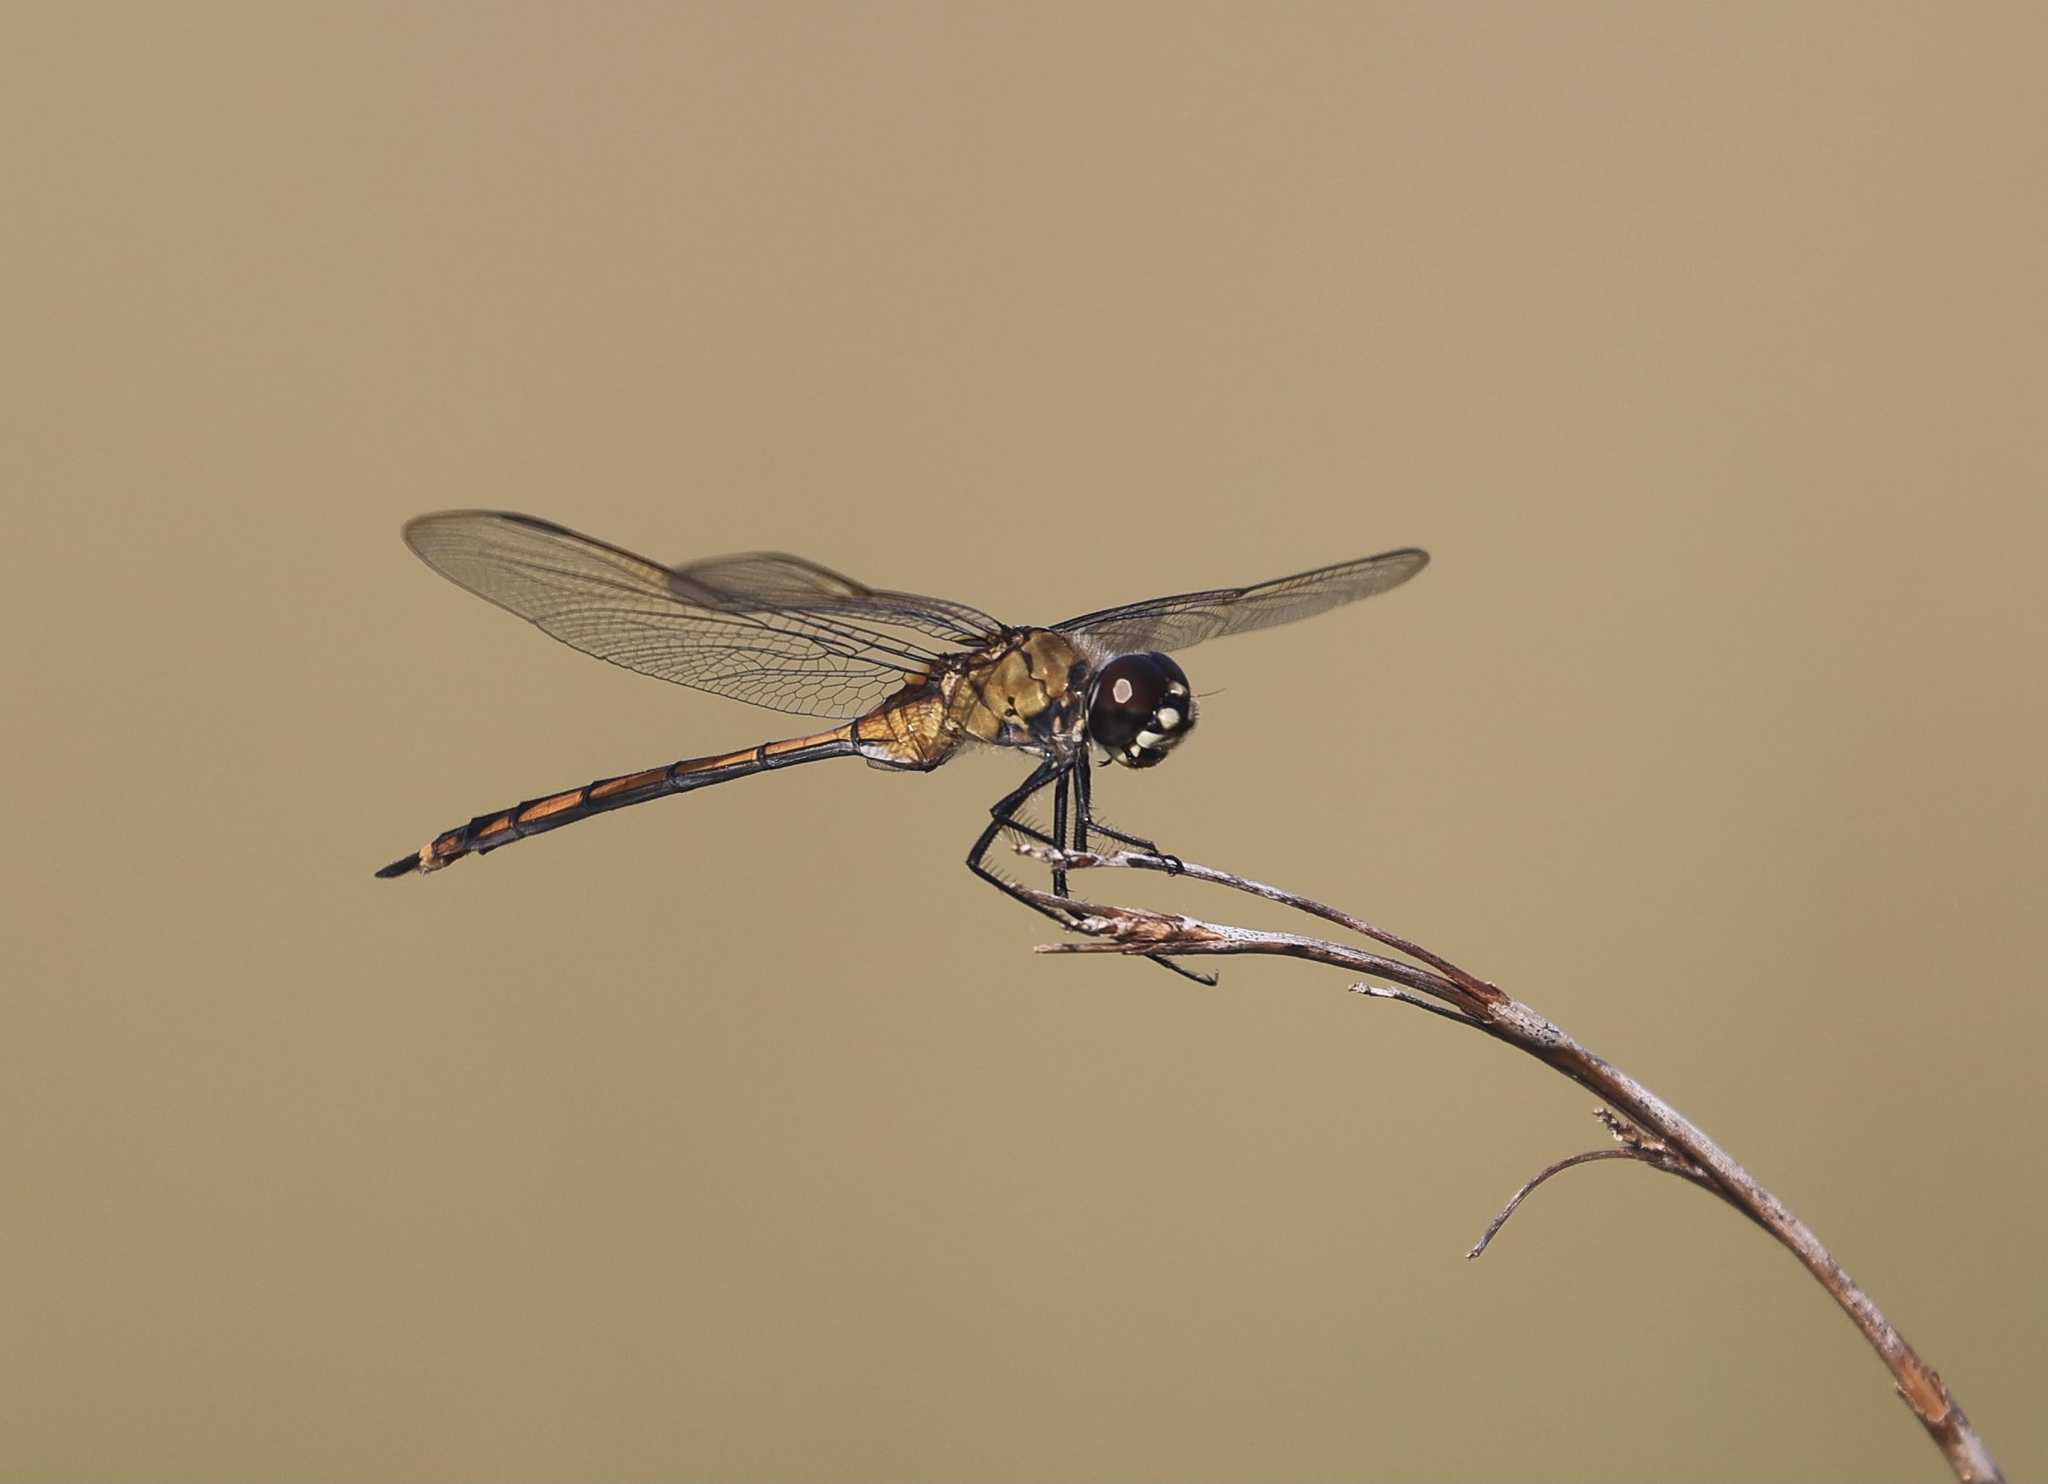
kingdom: Animalia
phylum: Arthropoda
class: Insecta
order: Odonata
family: Libellulidae
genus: Brachymesia
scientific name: Brachymesia gravida
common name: Four-spotted pennant
